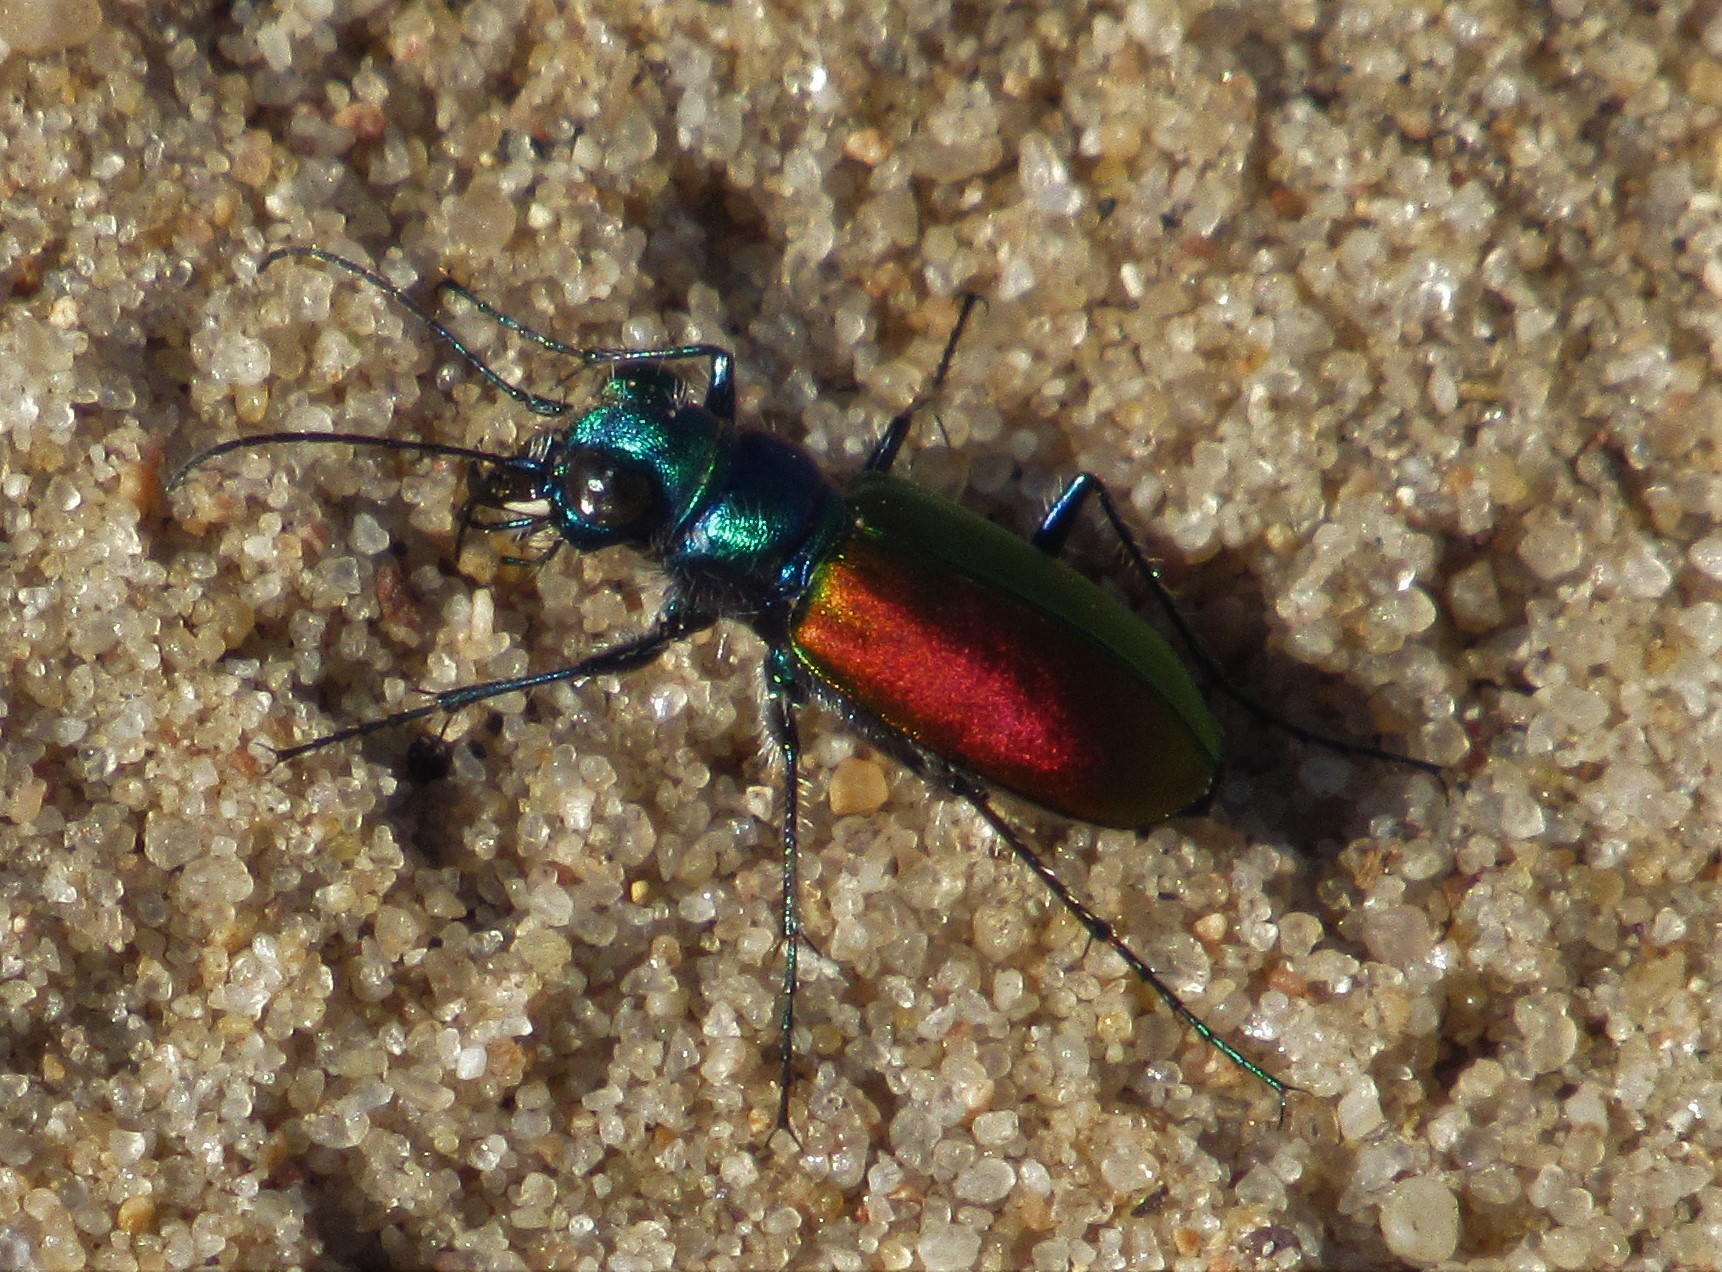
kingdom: Animalia
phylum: Arthropoda
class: Insecta
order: Coleoptera
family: Carabidae
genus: Cicindela
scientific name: Cicindela scutellaris
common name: Festive tiger beetle
